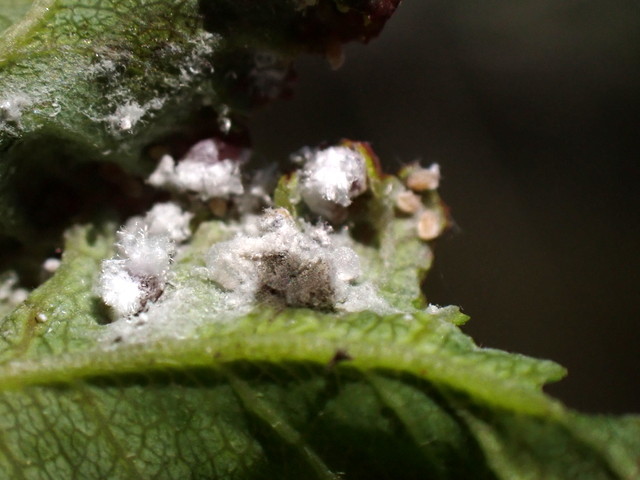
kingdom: Animalia
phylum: Arthropoda
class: Insecta
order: Hemiptera
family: Aphididae
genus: Hamamelistes
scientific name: Hamamelistes spinosus
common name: Witch hazel gall aphid
